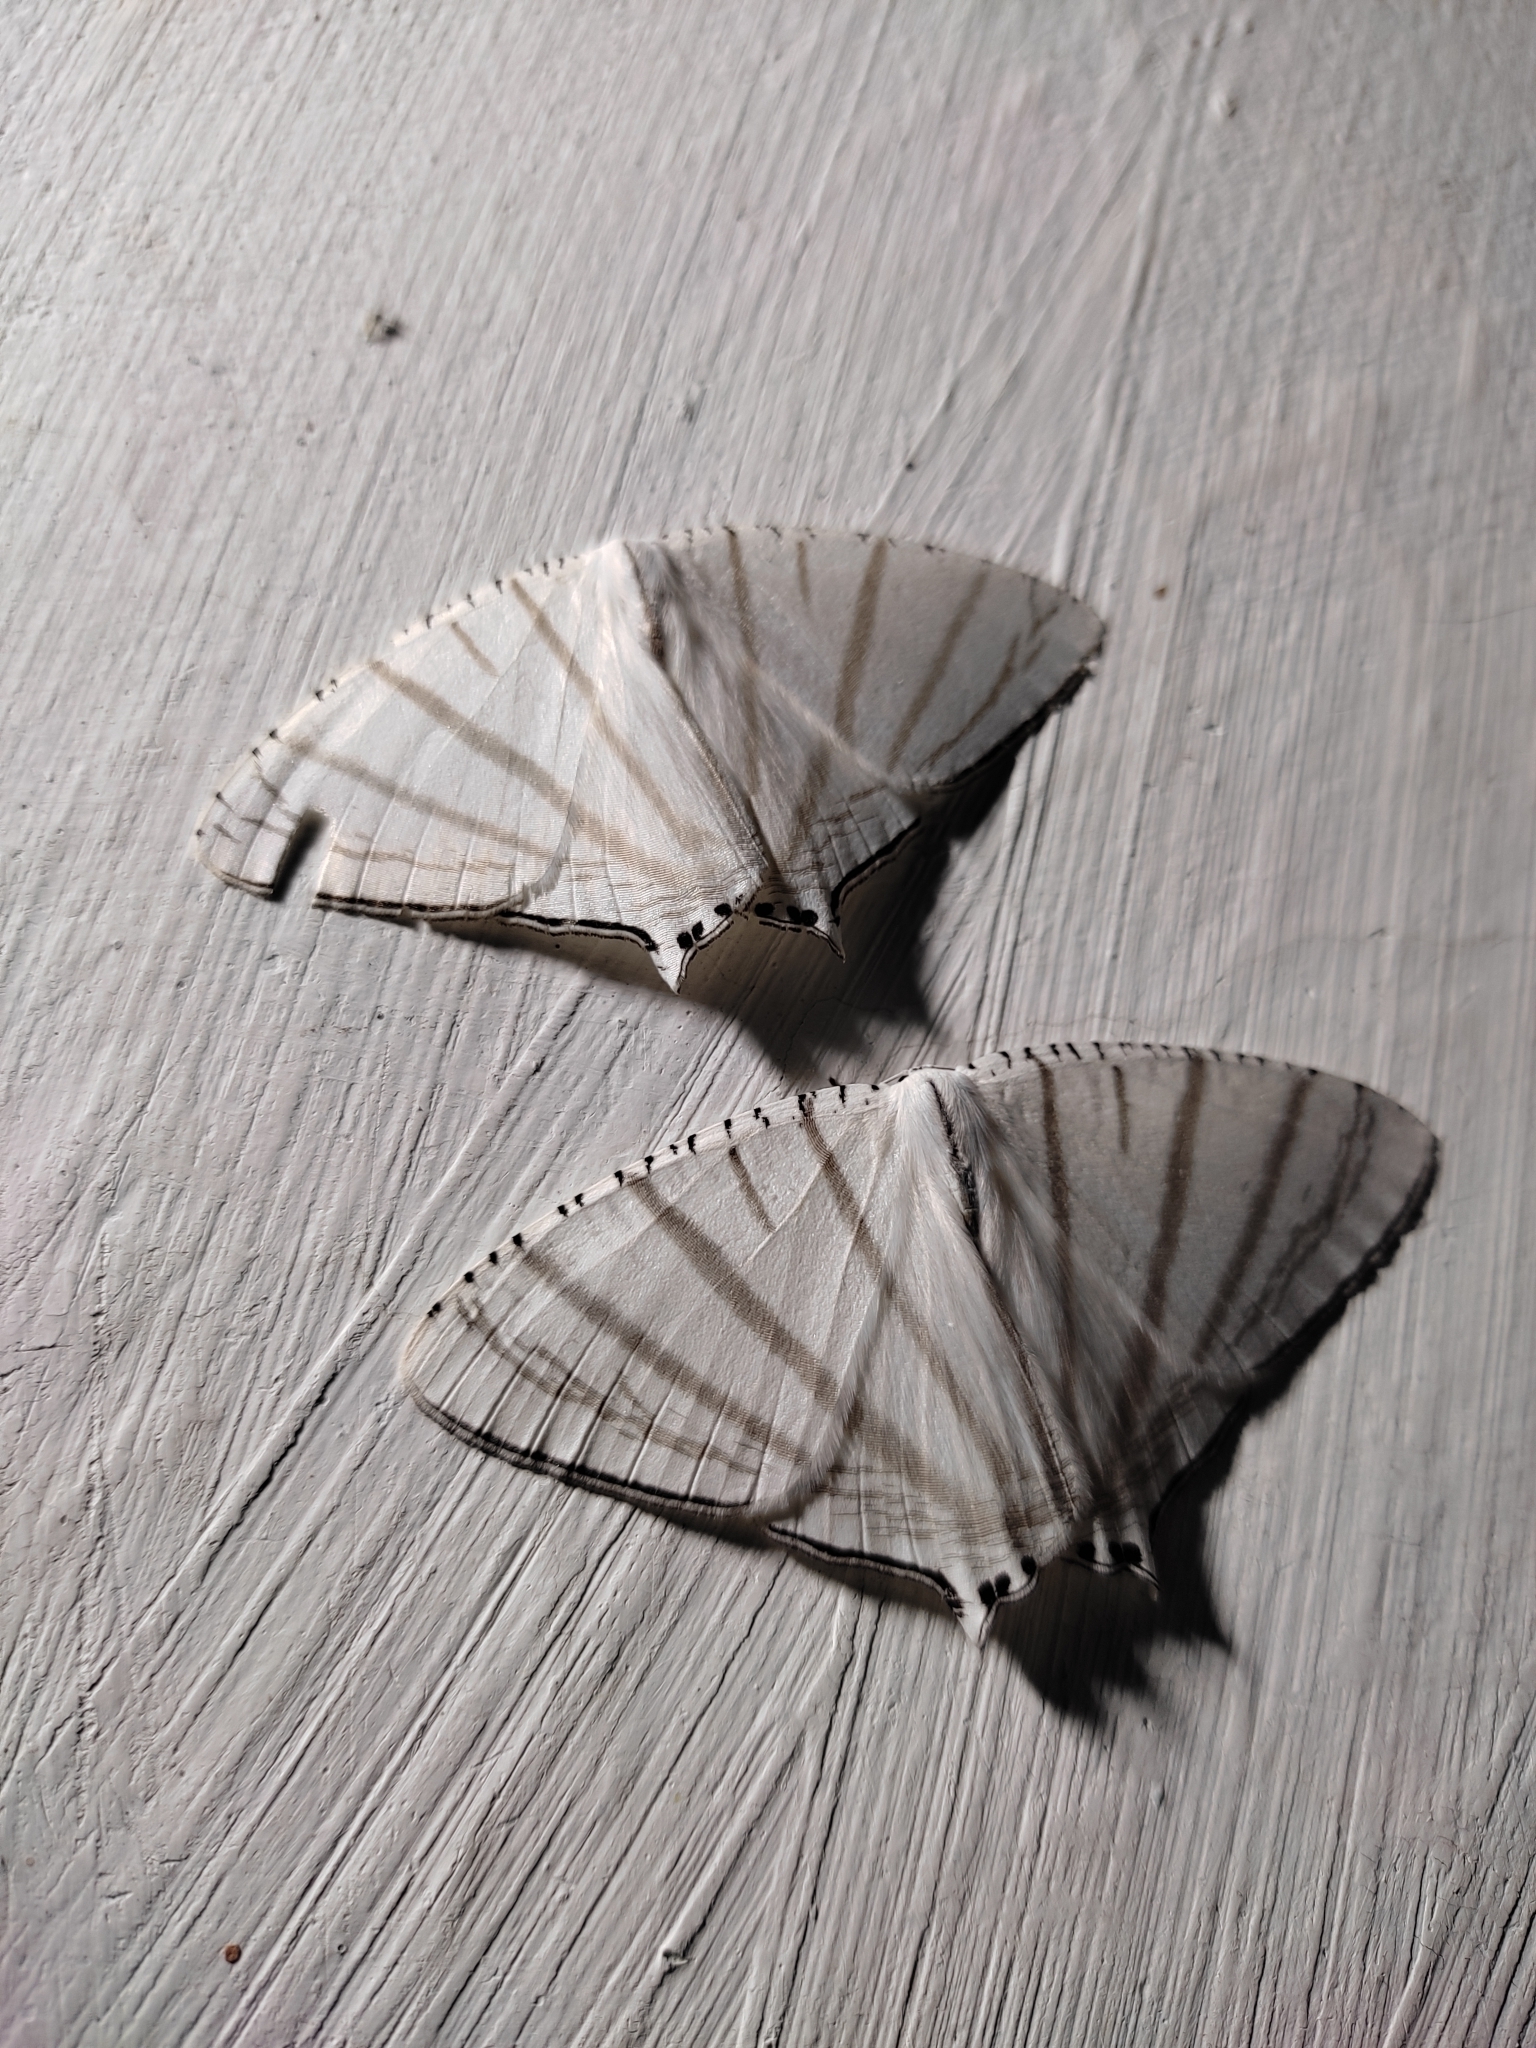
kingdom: Animalia
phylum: Arthropoda
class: Insecta
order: Lepidoptera
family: Uraniidae
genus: Urapteroides
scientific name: Urapteroides astheniata
